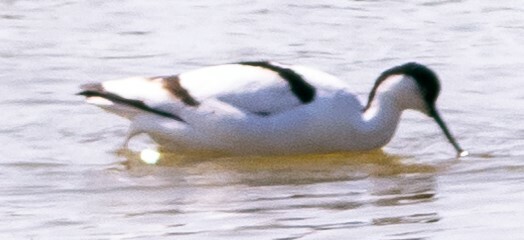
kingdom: Animalia
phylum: Chordata
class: Aves
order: Charadriiformes
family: Recurvirostridae
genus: Recurvirostra
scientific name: Recurvirostra avosetta
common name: Pied avocet
